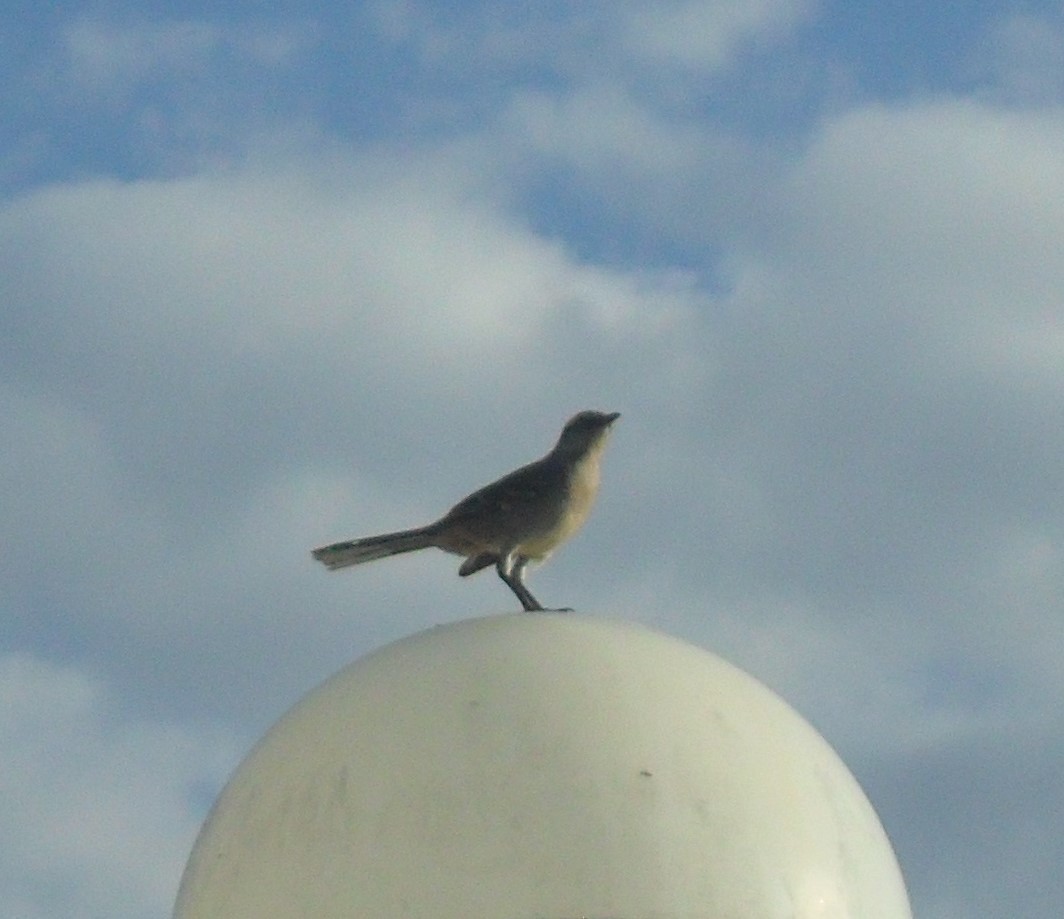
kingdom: Animalia
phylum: Chordata
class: Aves
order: Passeriformes
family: Mimidae
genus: Mimus
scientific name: Mimus saturninus
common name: Chalk-browed mockingbird
